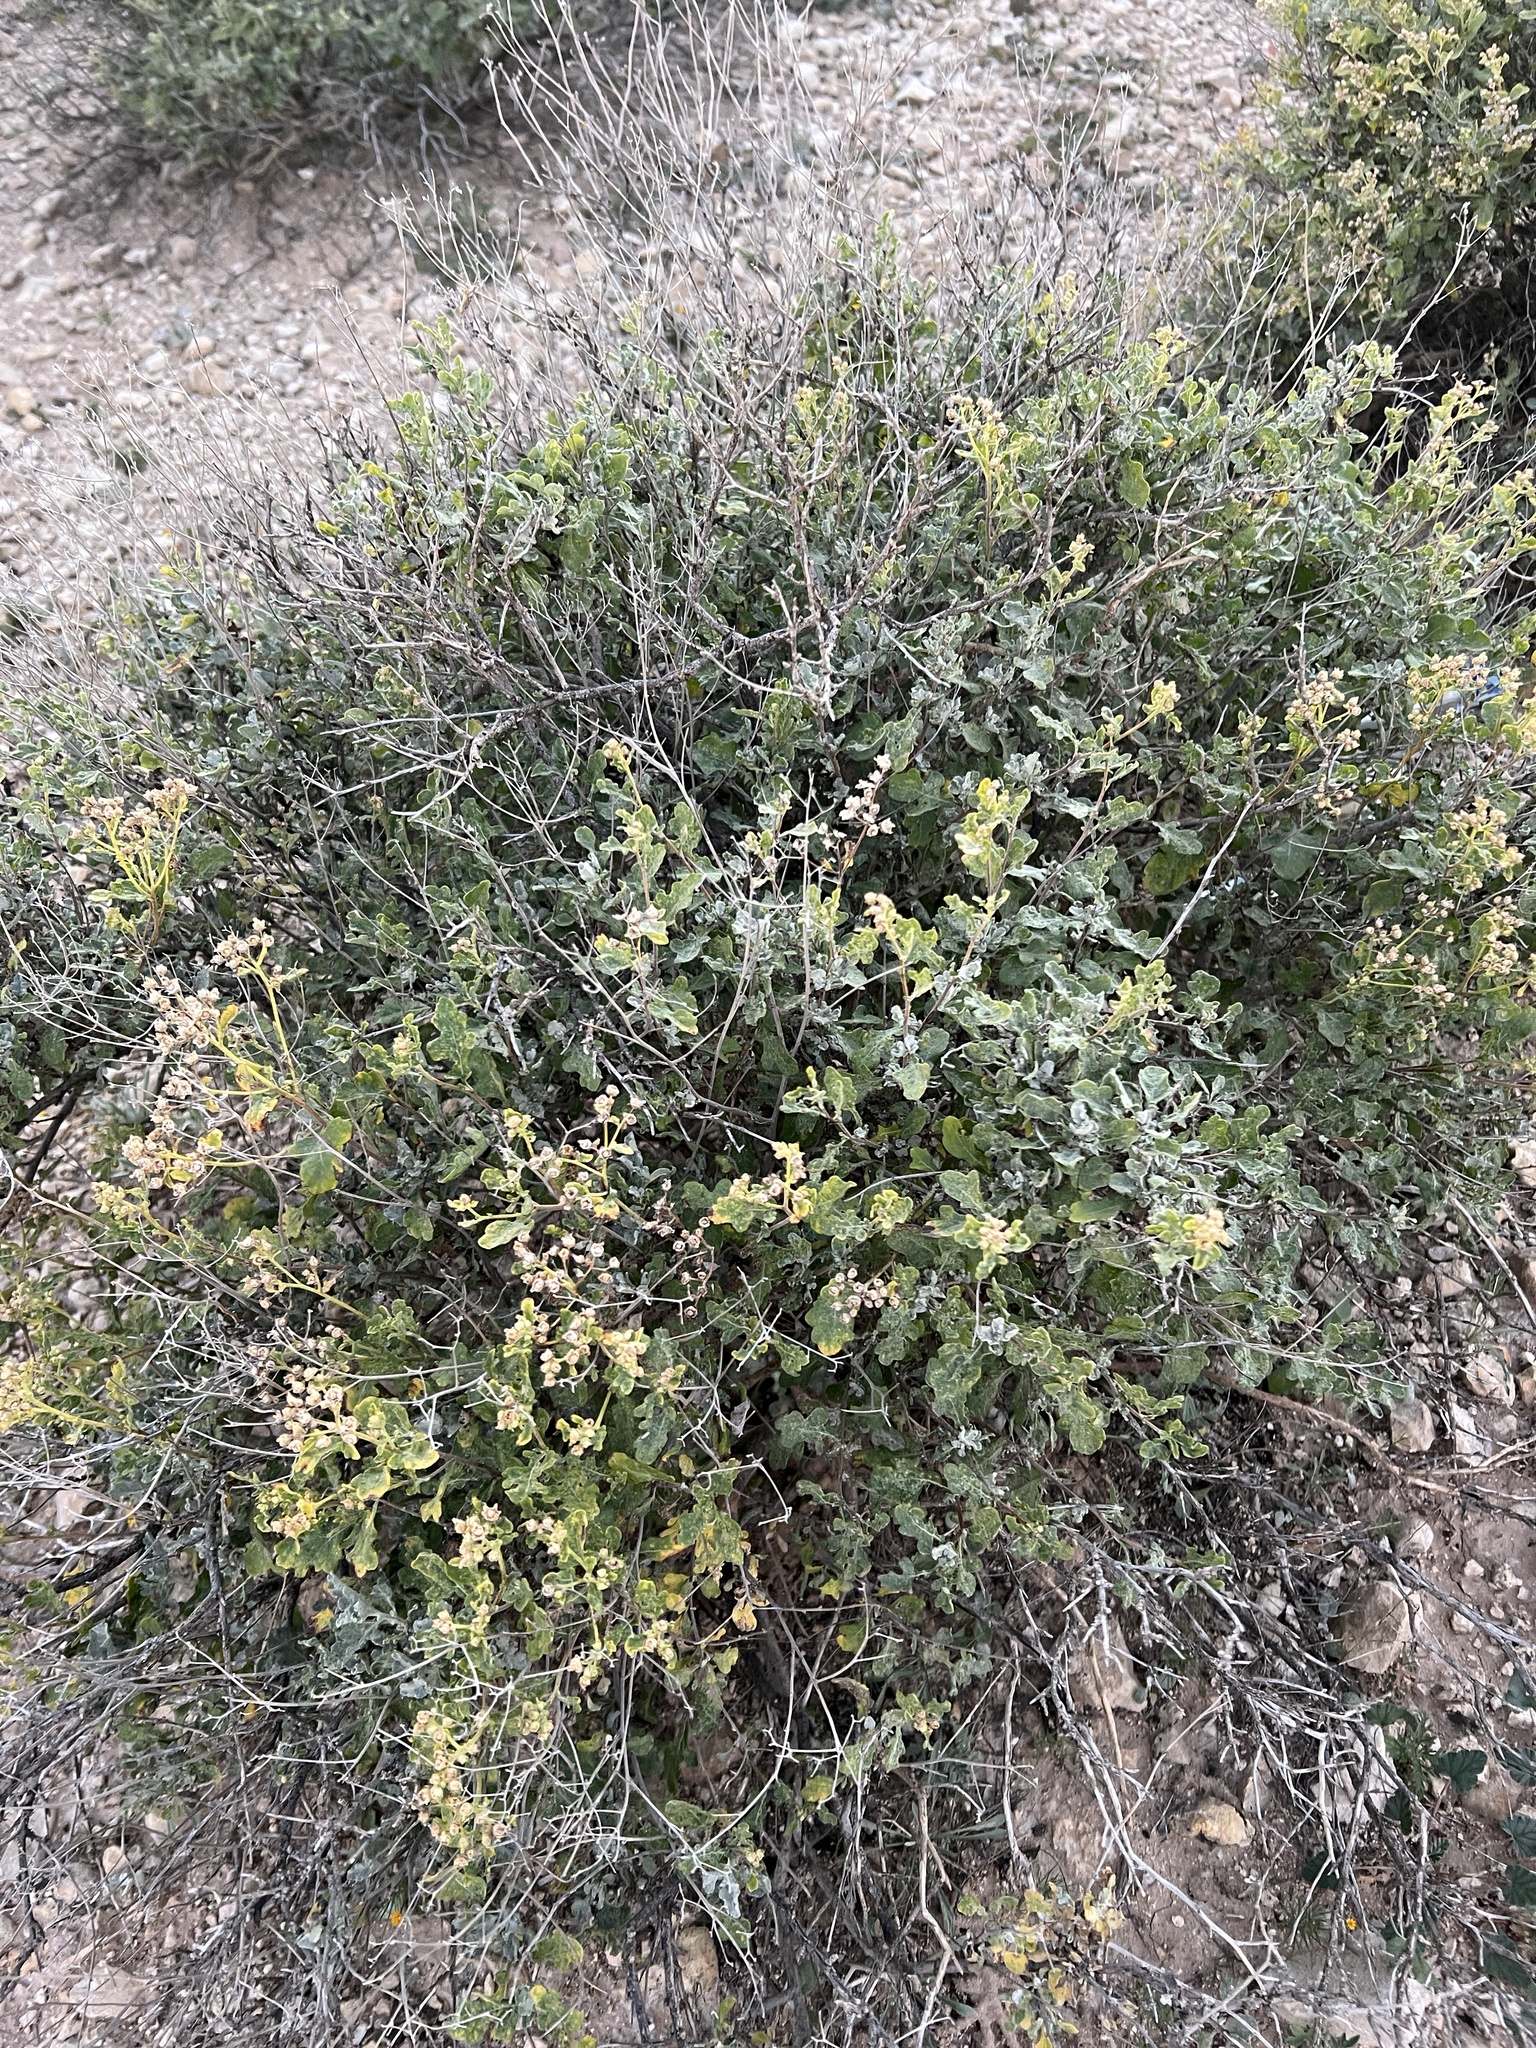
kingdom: Plantae
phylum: Tracheophyta
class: Magnoliopsida
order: Asterales
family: Asteraceae
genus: Parthenium
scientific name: Parthenium incanum
